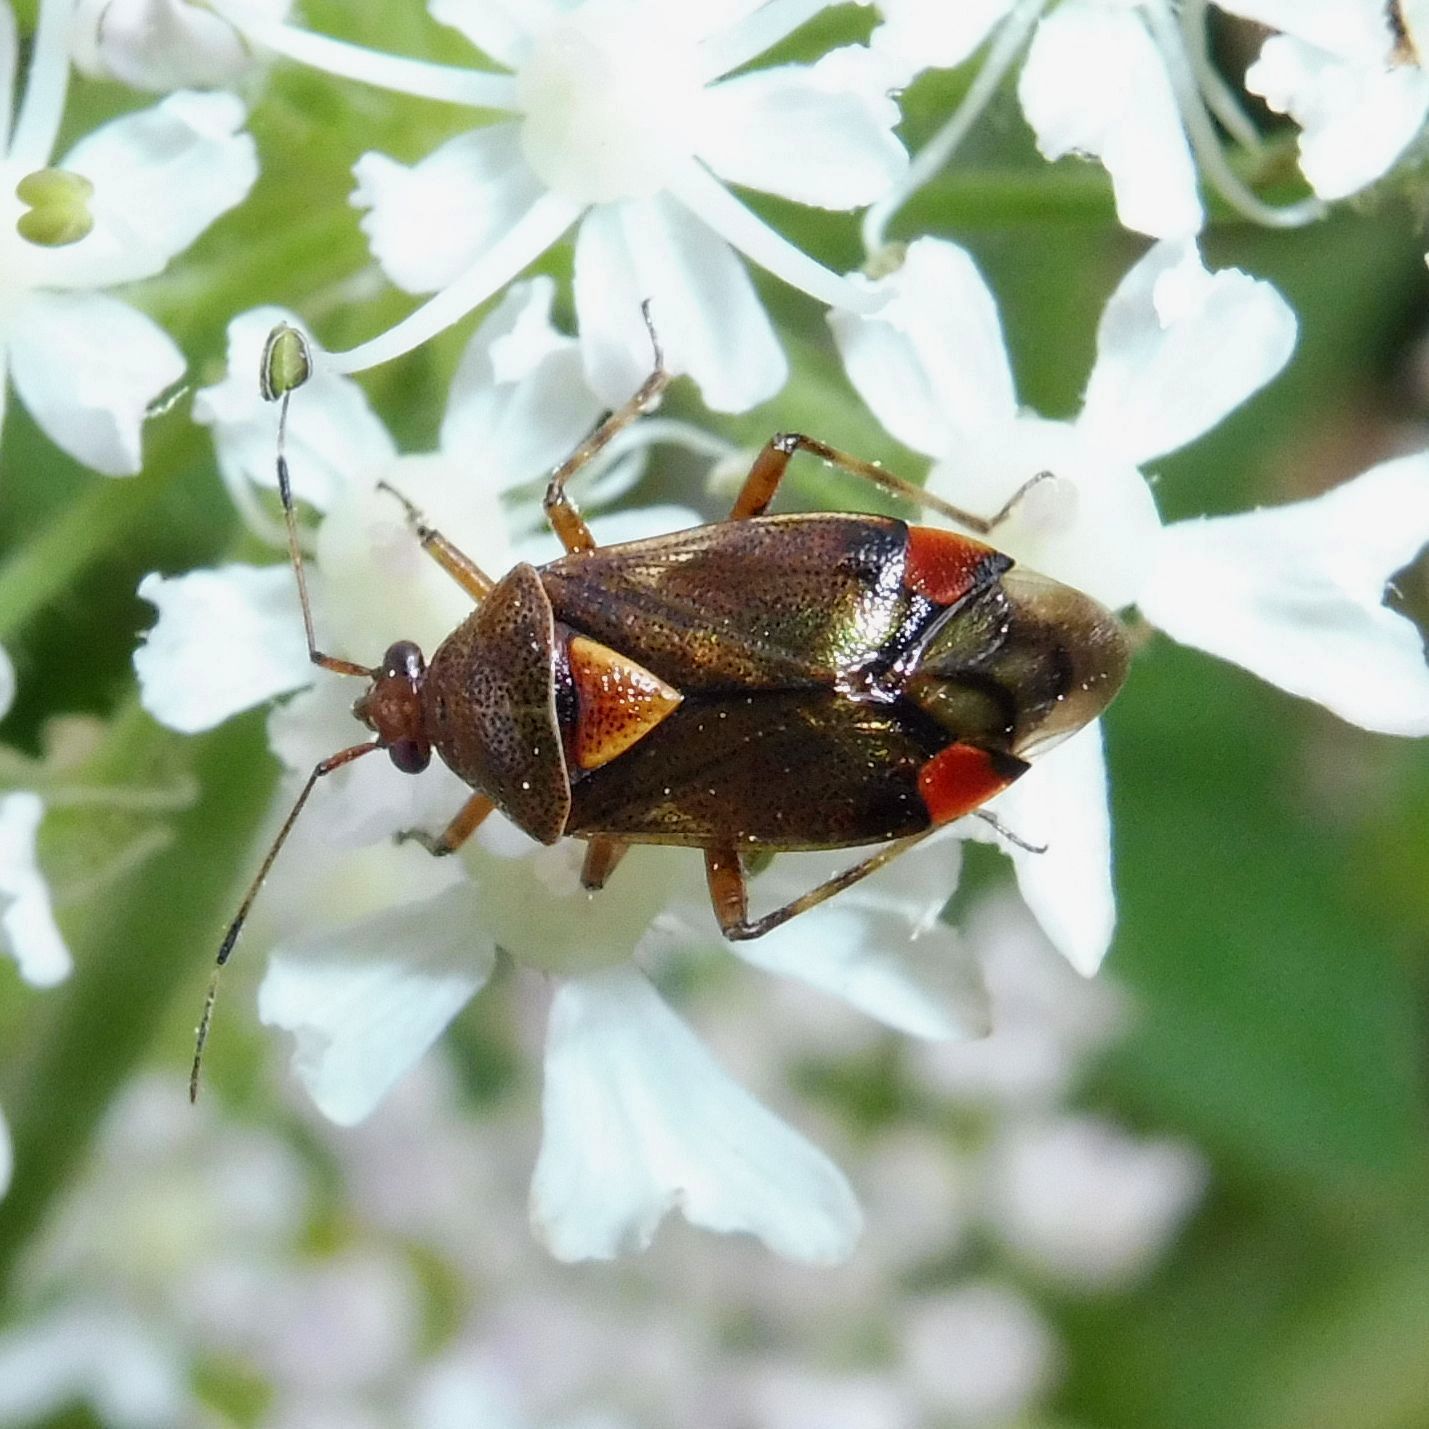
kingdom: Animalia
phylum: Arthropoda
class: Insecta
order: Hemiptera
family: Miridae
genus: Deraeocoris
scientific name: Deraeocoris flavilinea
